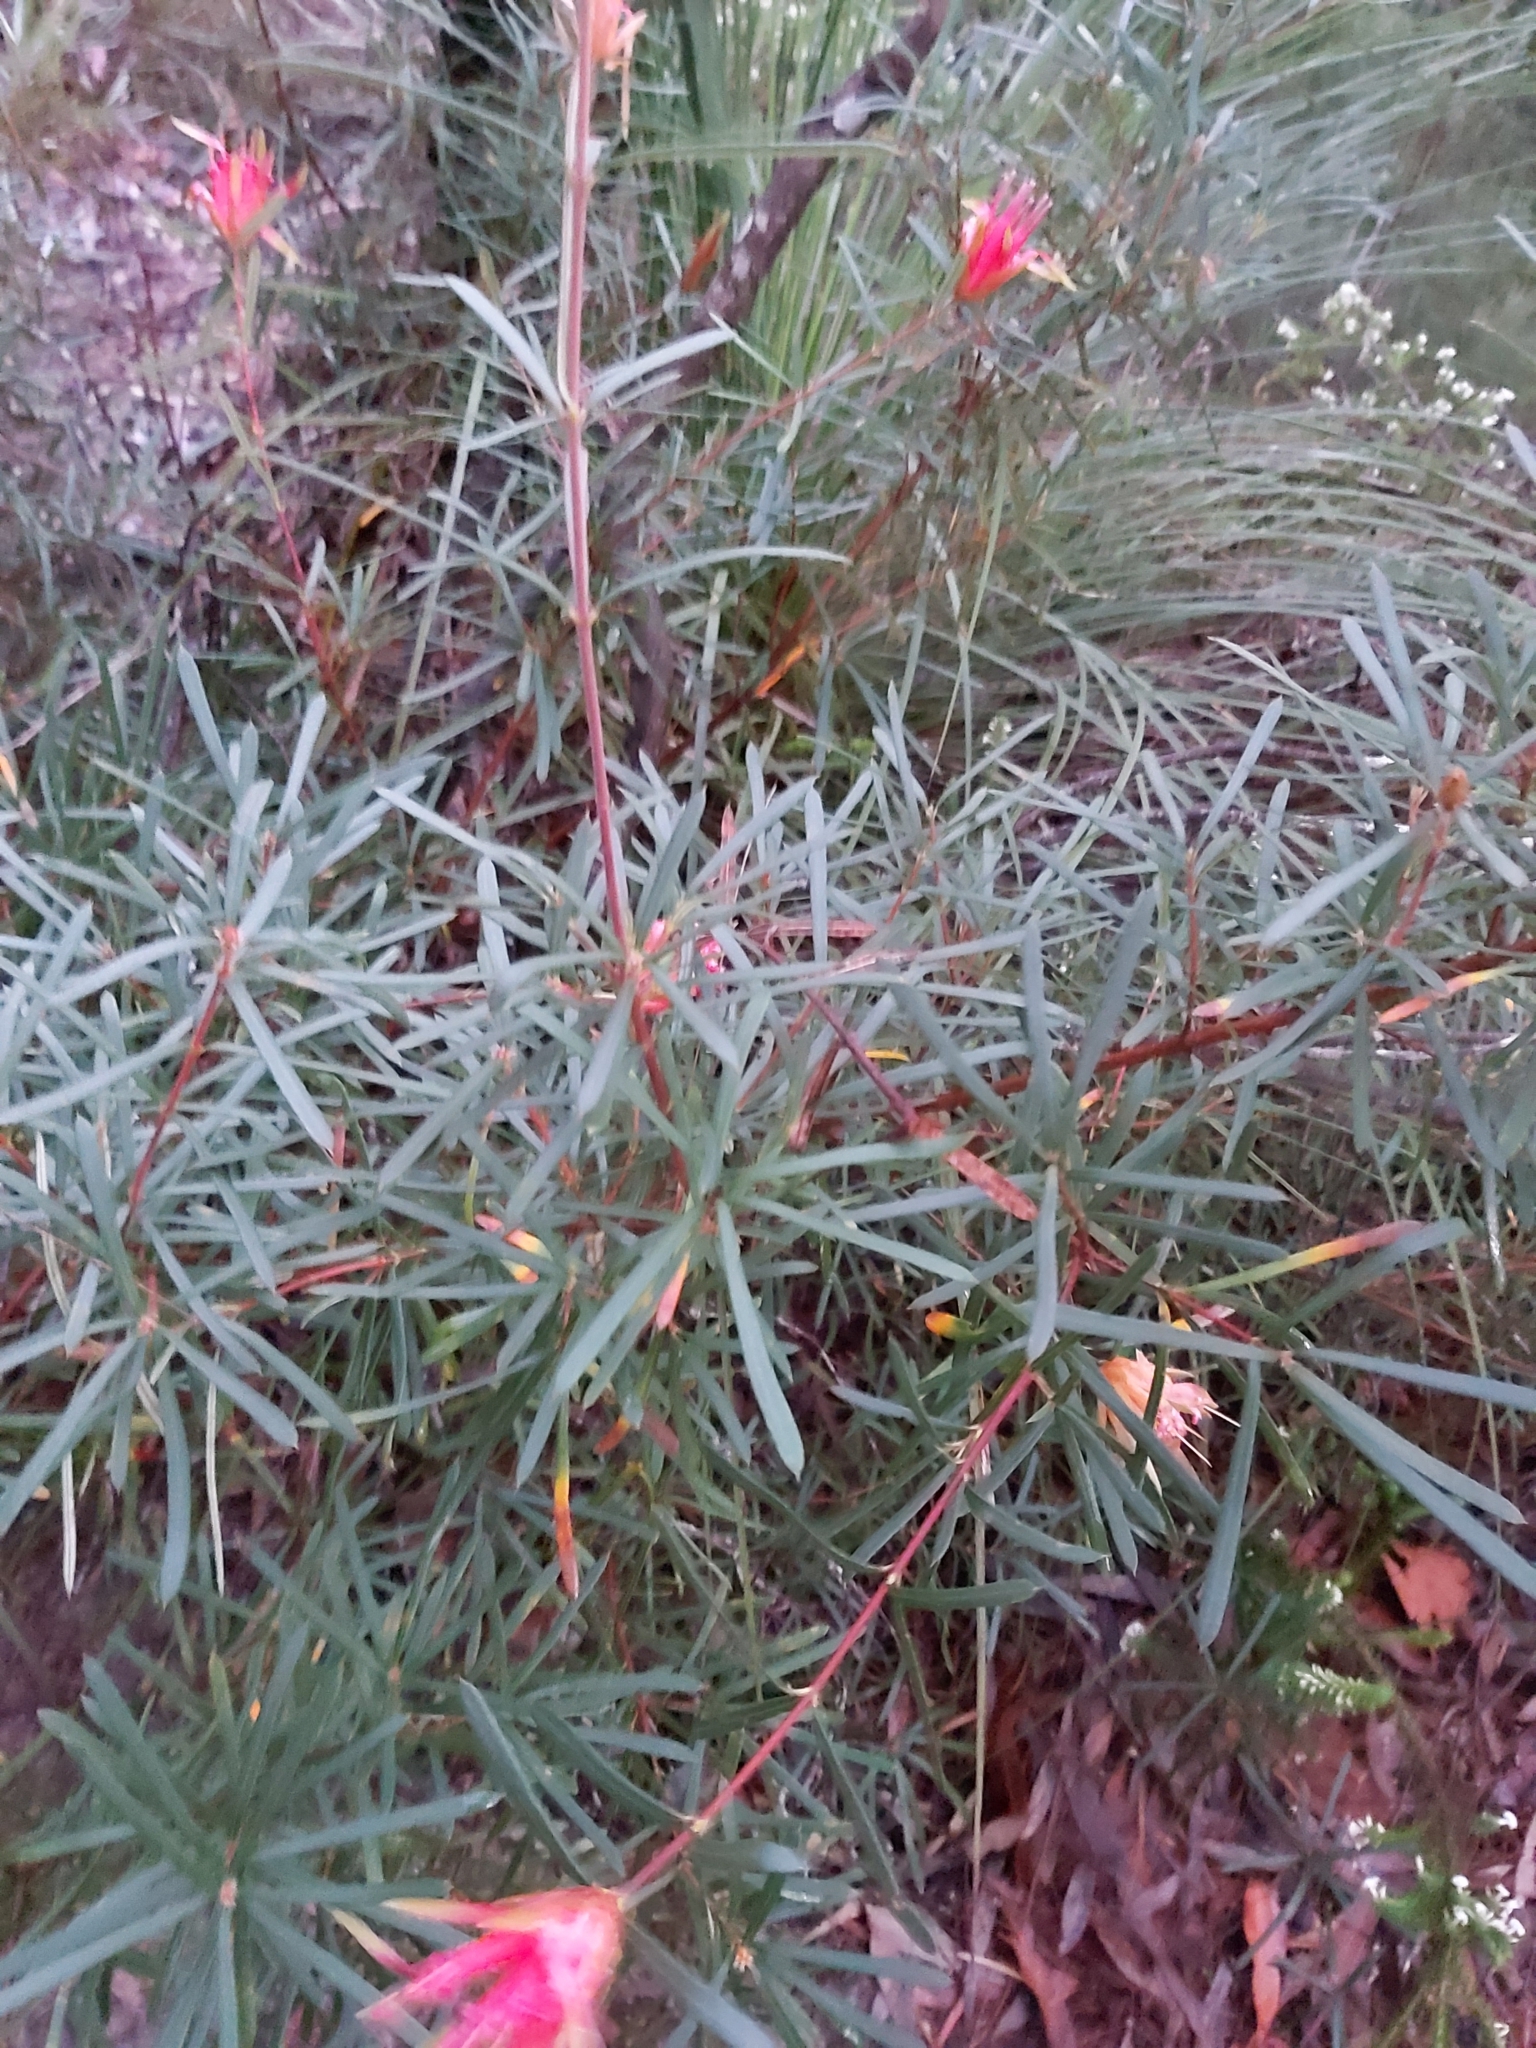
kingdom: Plantae
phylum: Tracheophyta
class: Magnoliopsida
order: Proteales
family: Proteaceae
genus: Lambertia
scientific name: Lambertia formosa
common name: Mountain-devil
